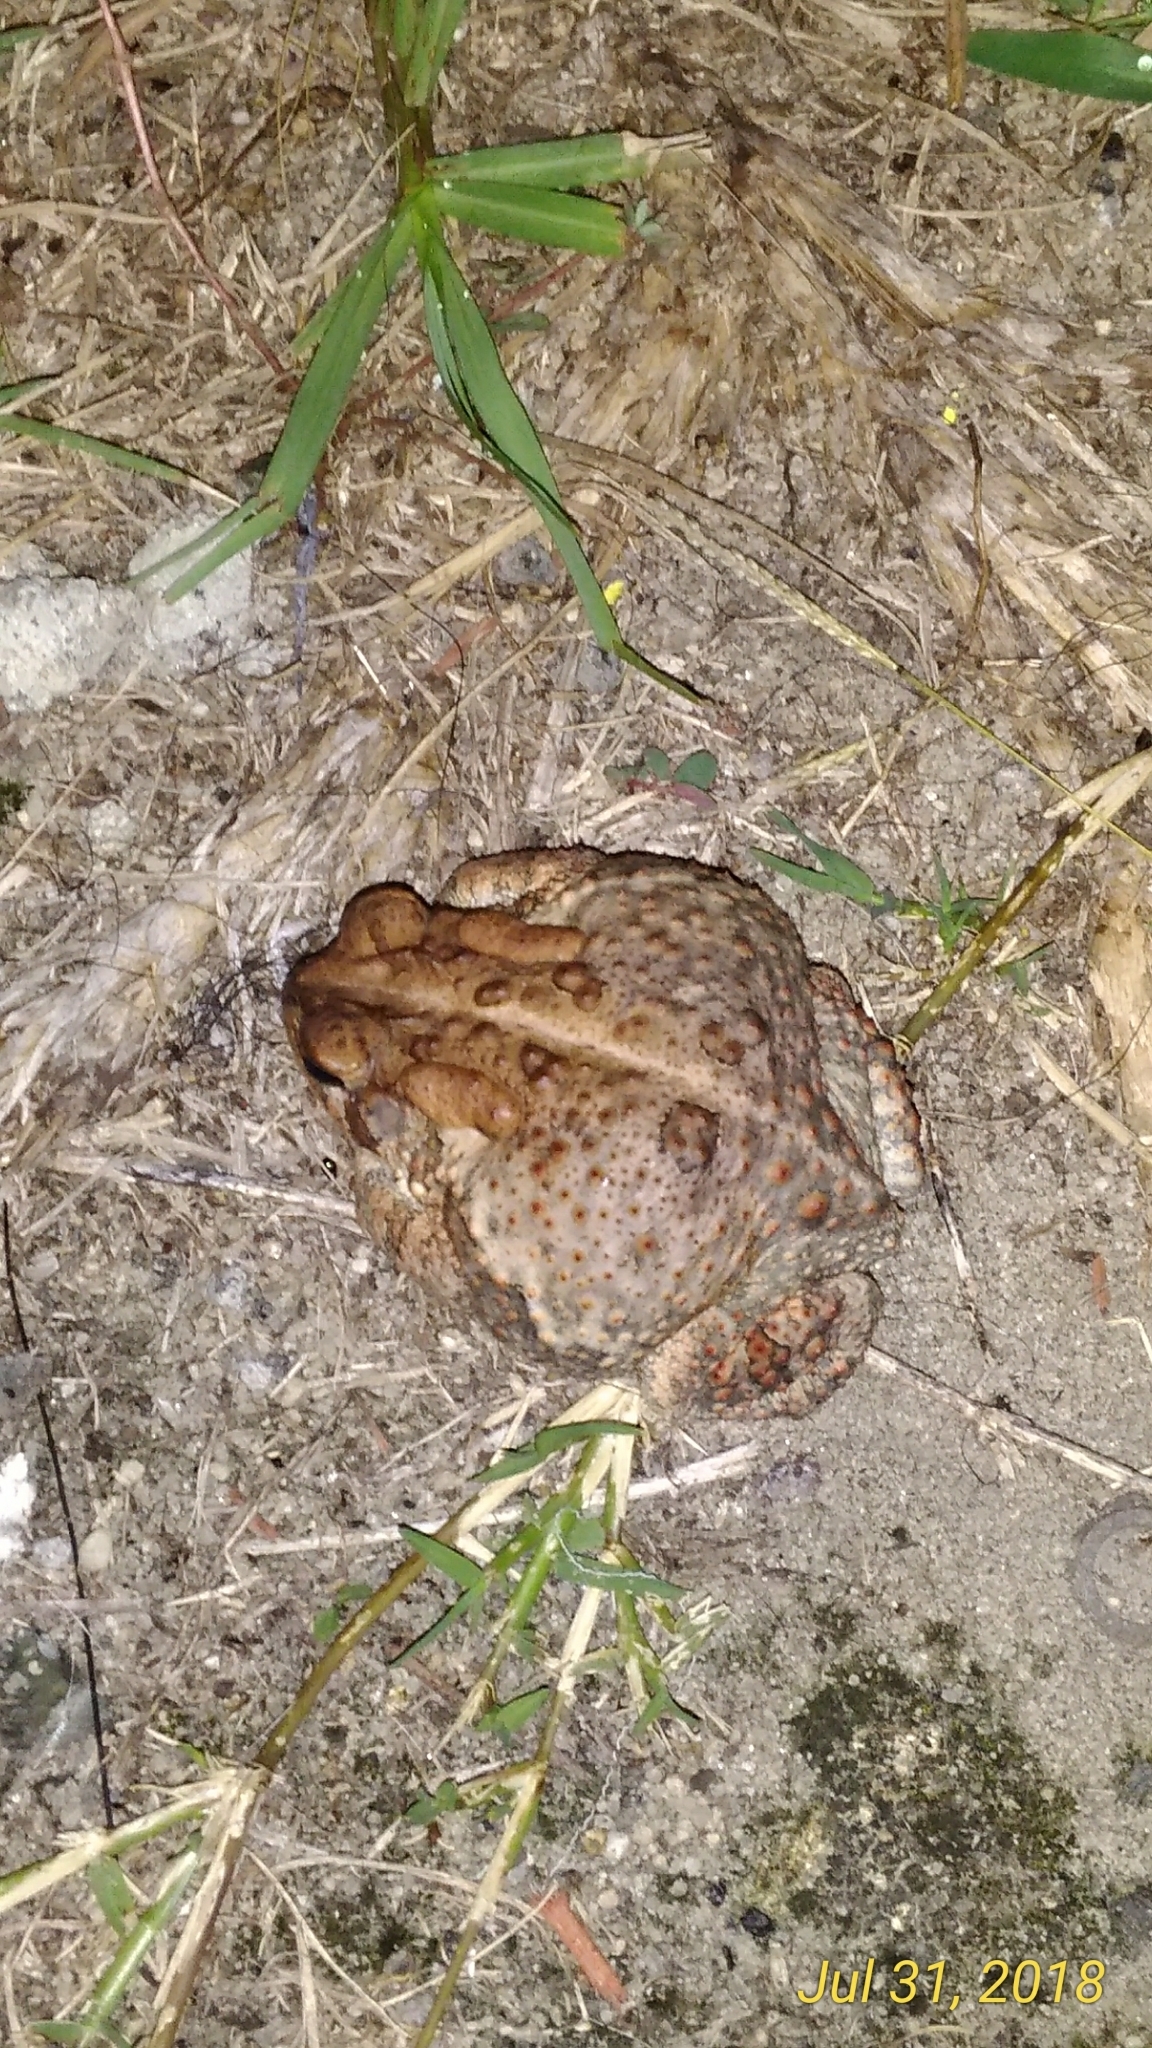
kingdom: Animalia
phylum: Chordata
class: Amphibia
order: Anura
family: Bufonidae
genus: Anaxyrus
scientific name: Anaxyrus terrestris
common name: Southern toad
